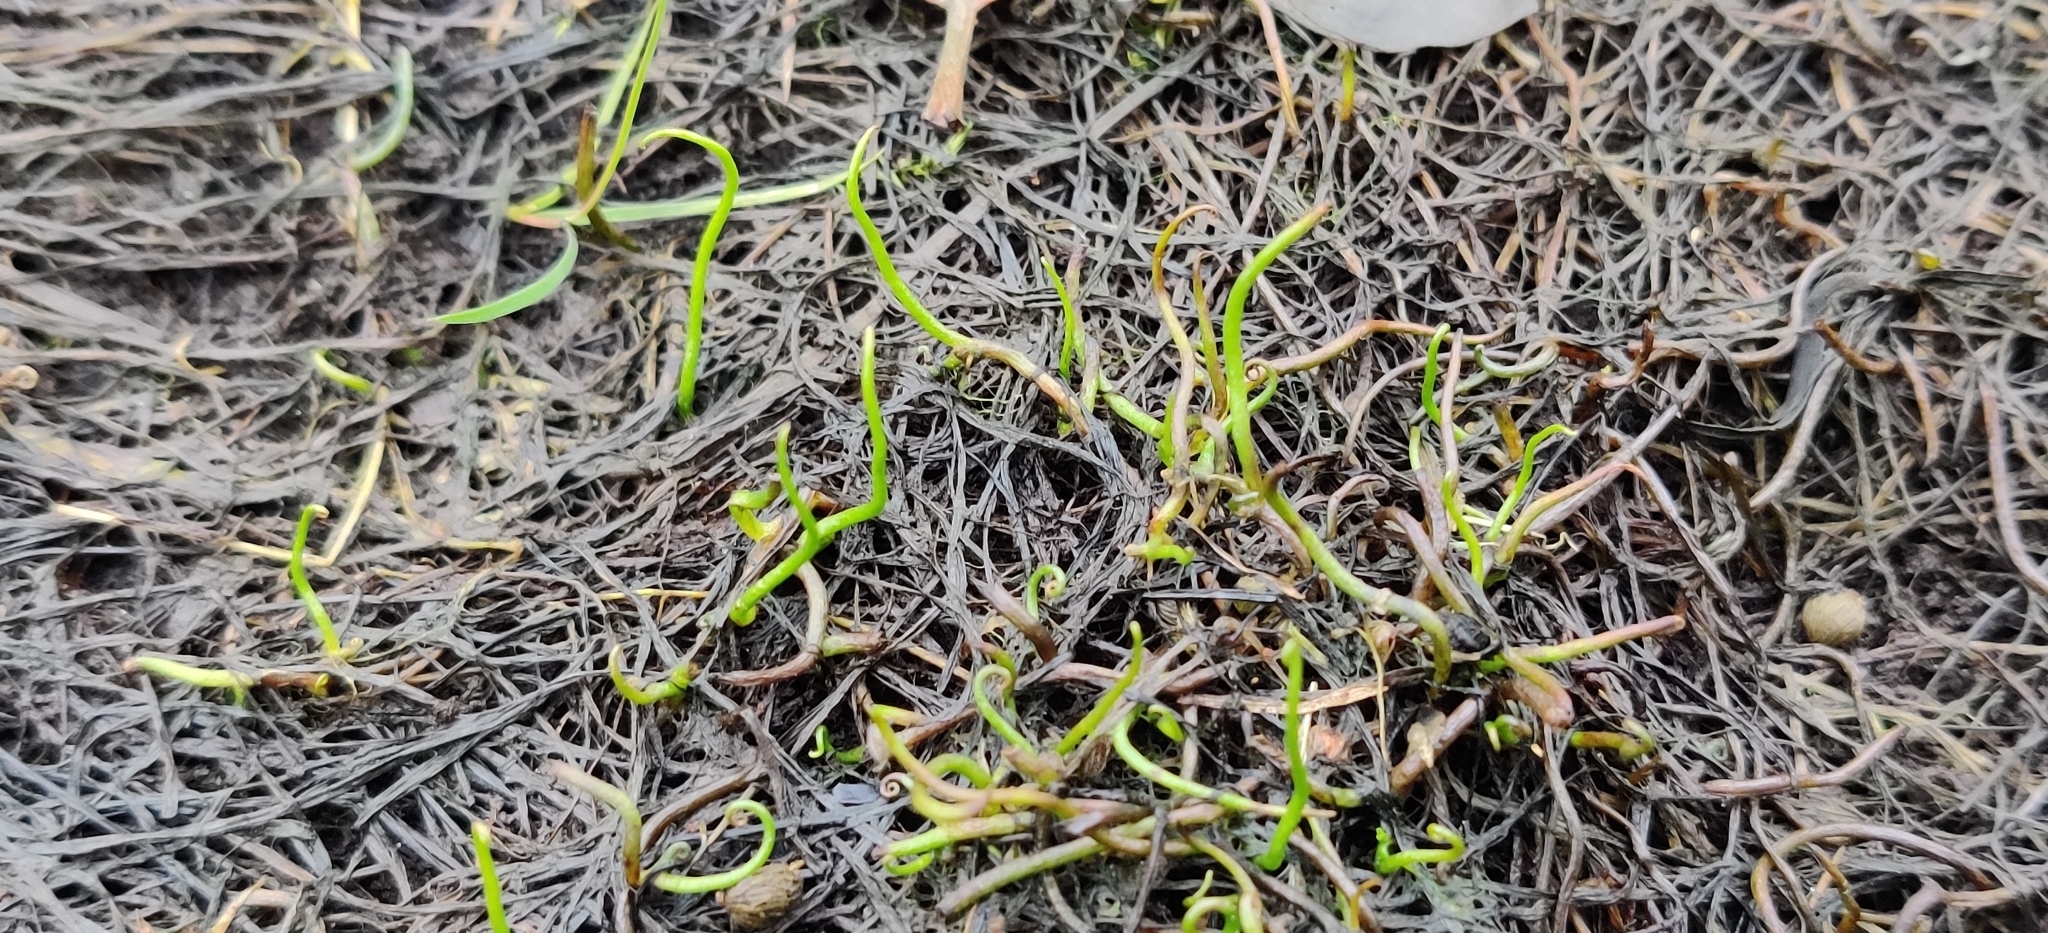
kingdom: Plantae
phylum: Tracheophyta
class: Polypodiopsida
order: Salviniales
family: Marsileaceae
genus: Pilularia
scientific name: Pilularia globulifera
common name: Pillwort
